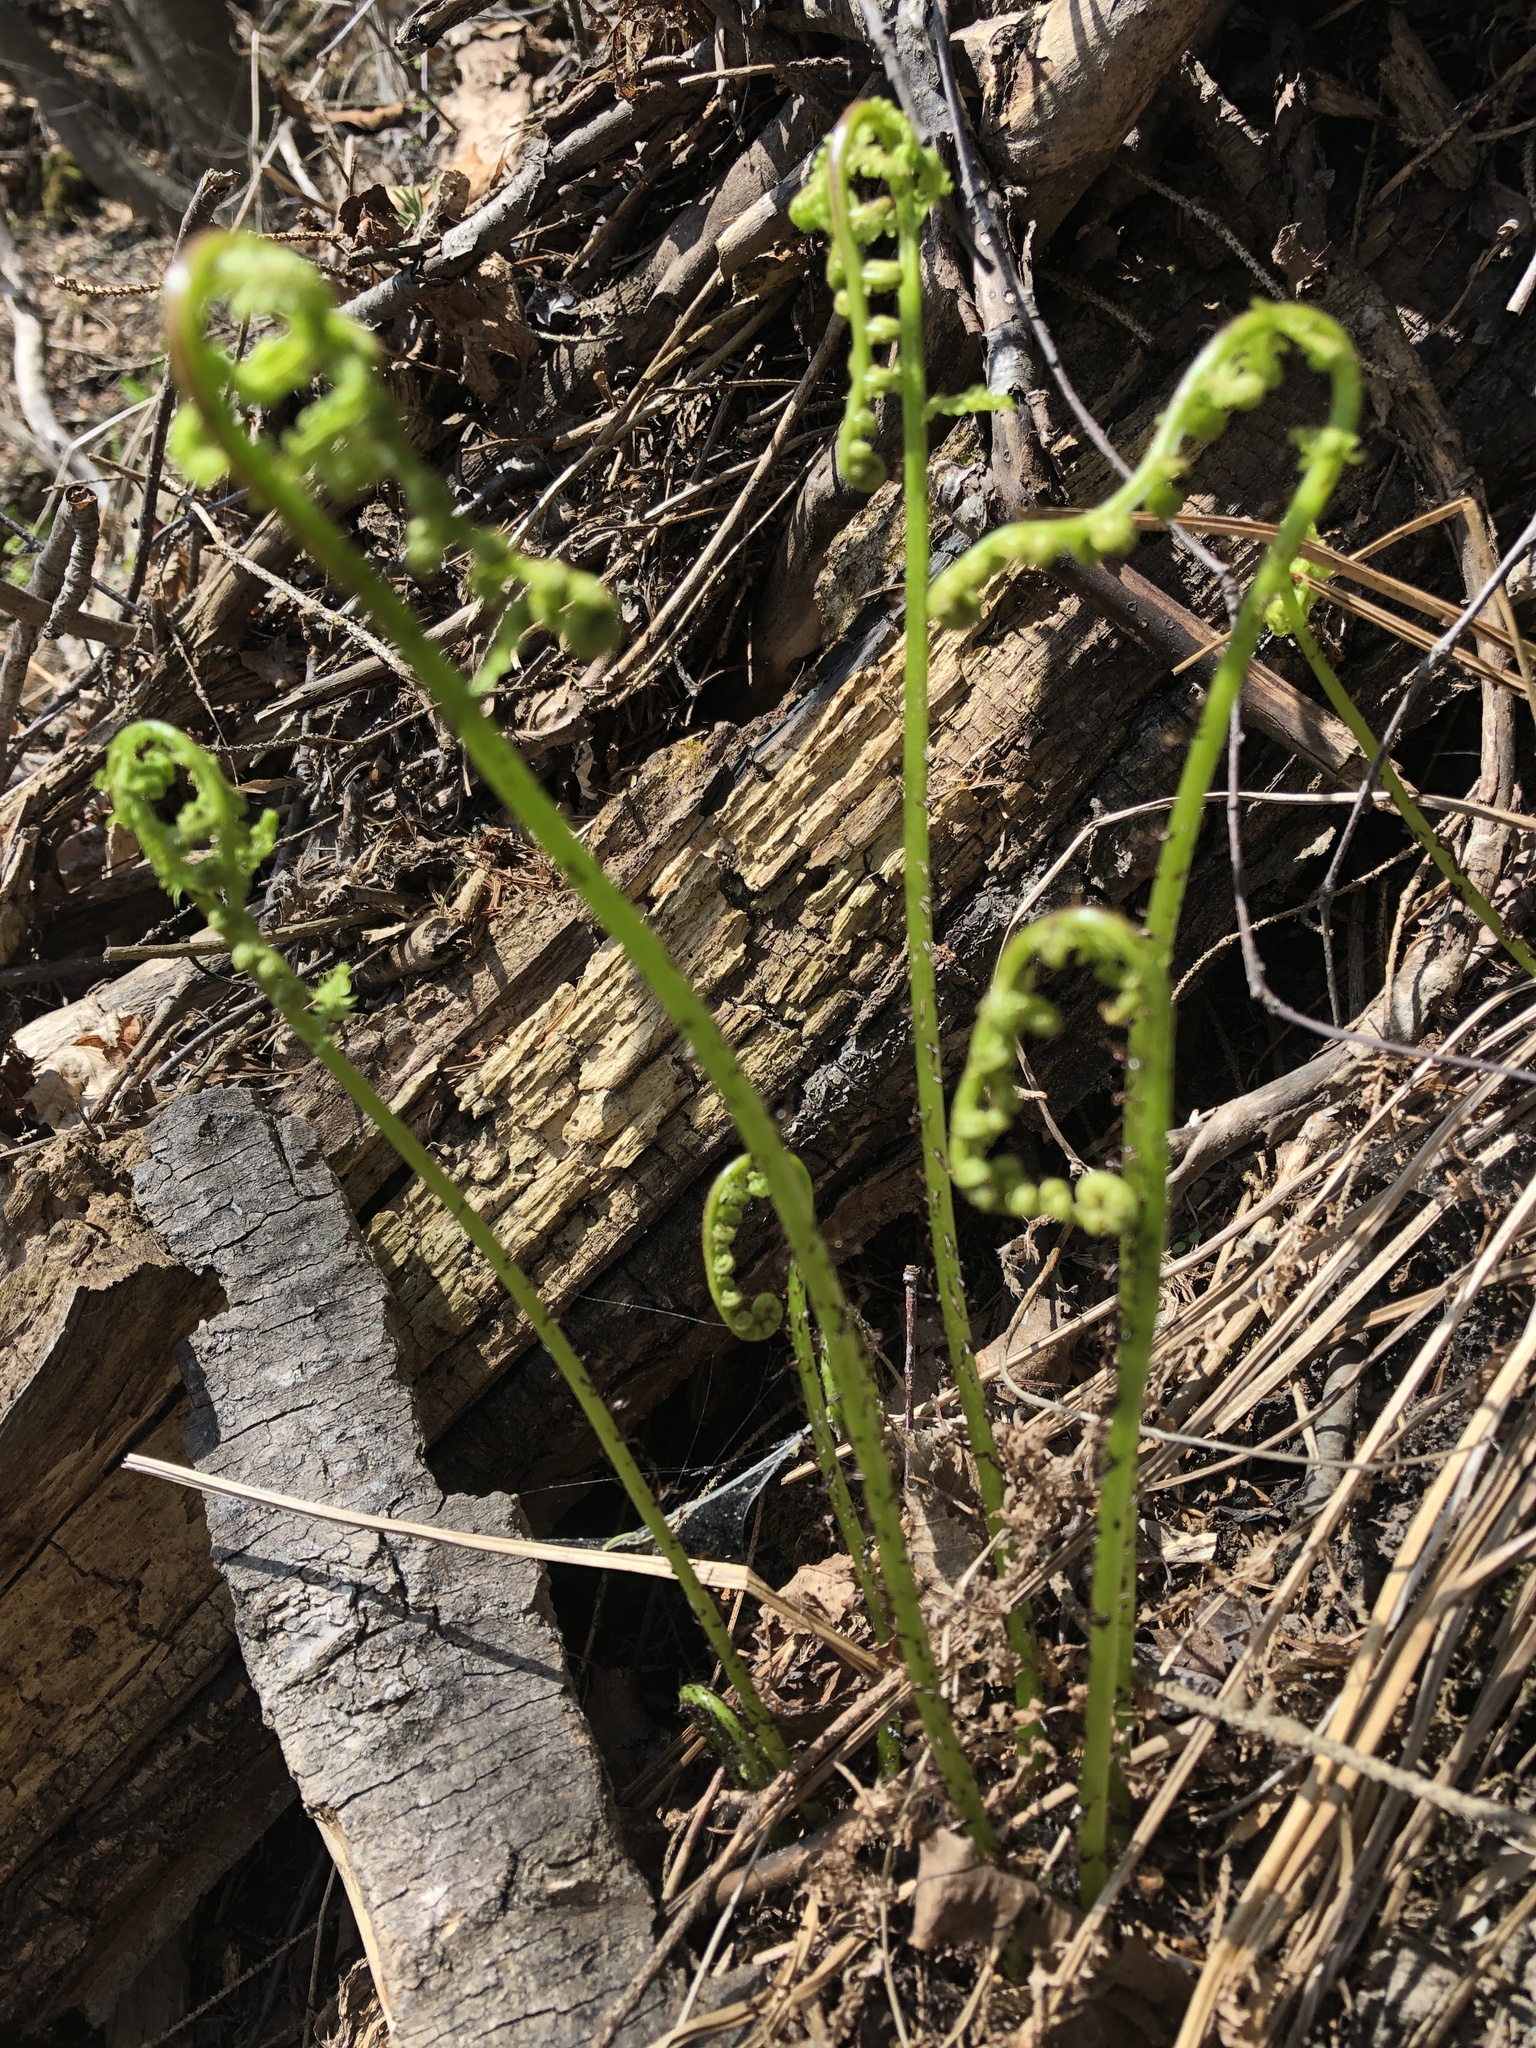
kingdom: Plantae
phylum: Tracheophyta
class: Polypodiopsida
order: Polypodiales
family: Athyriaceae
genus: Athyrium
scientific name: Athyrium angustum
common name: Northern lady fern
